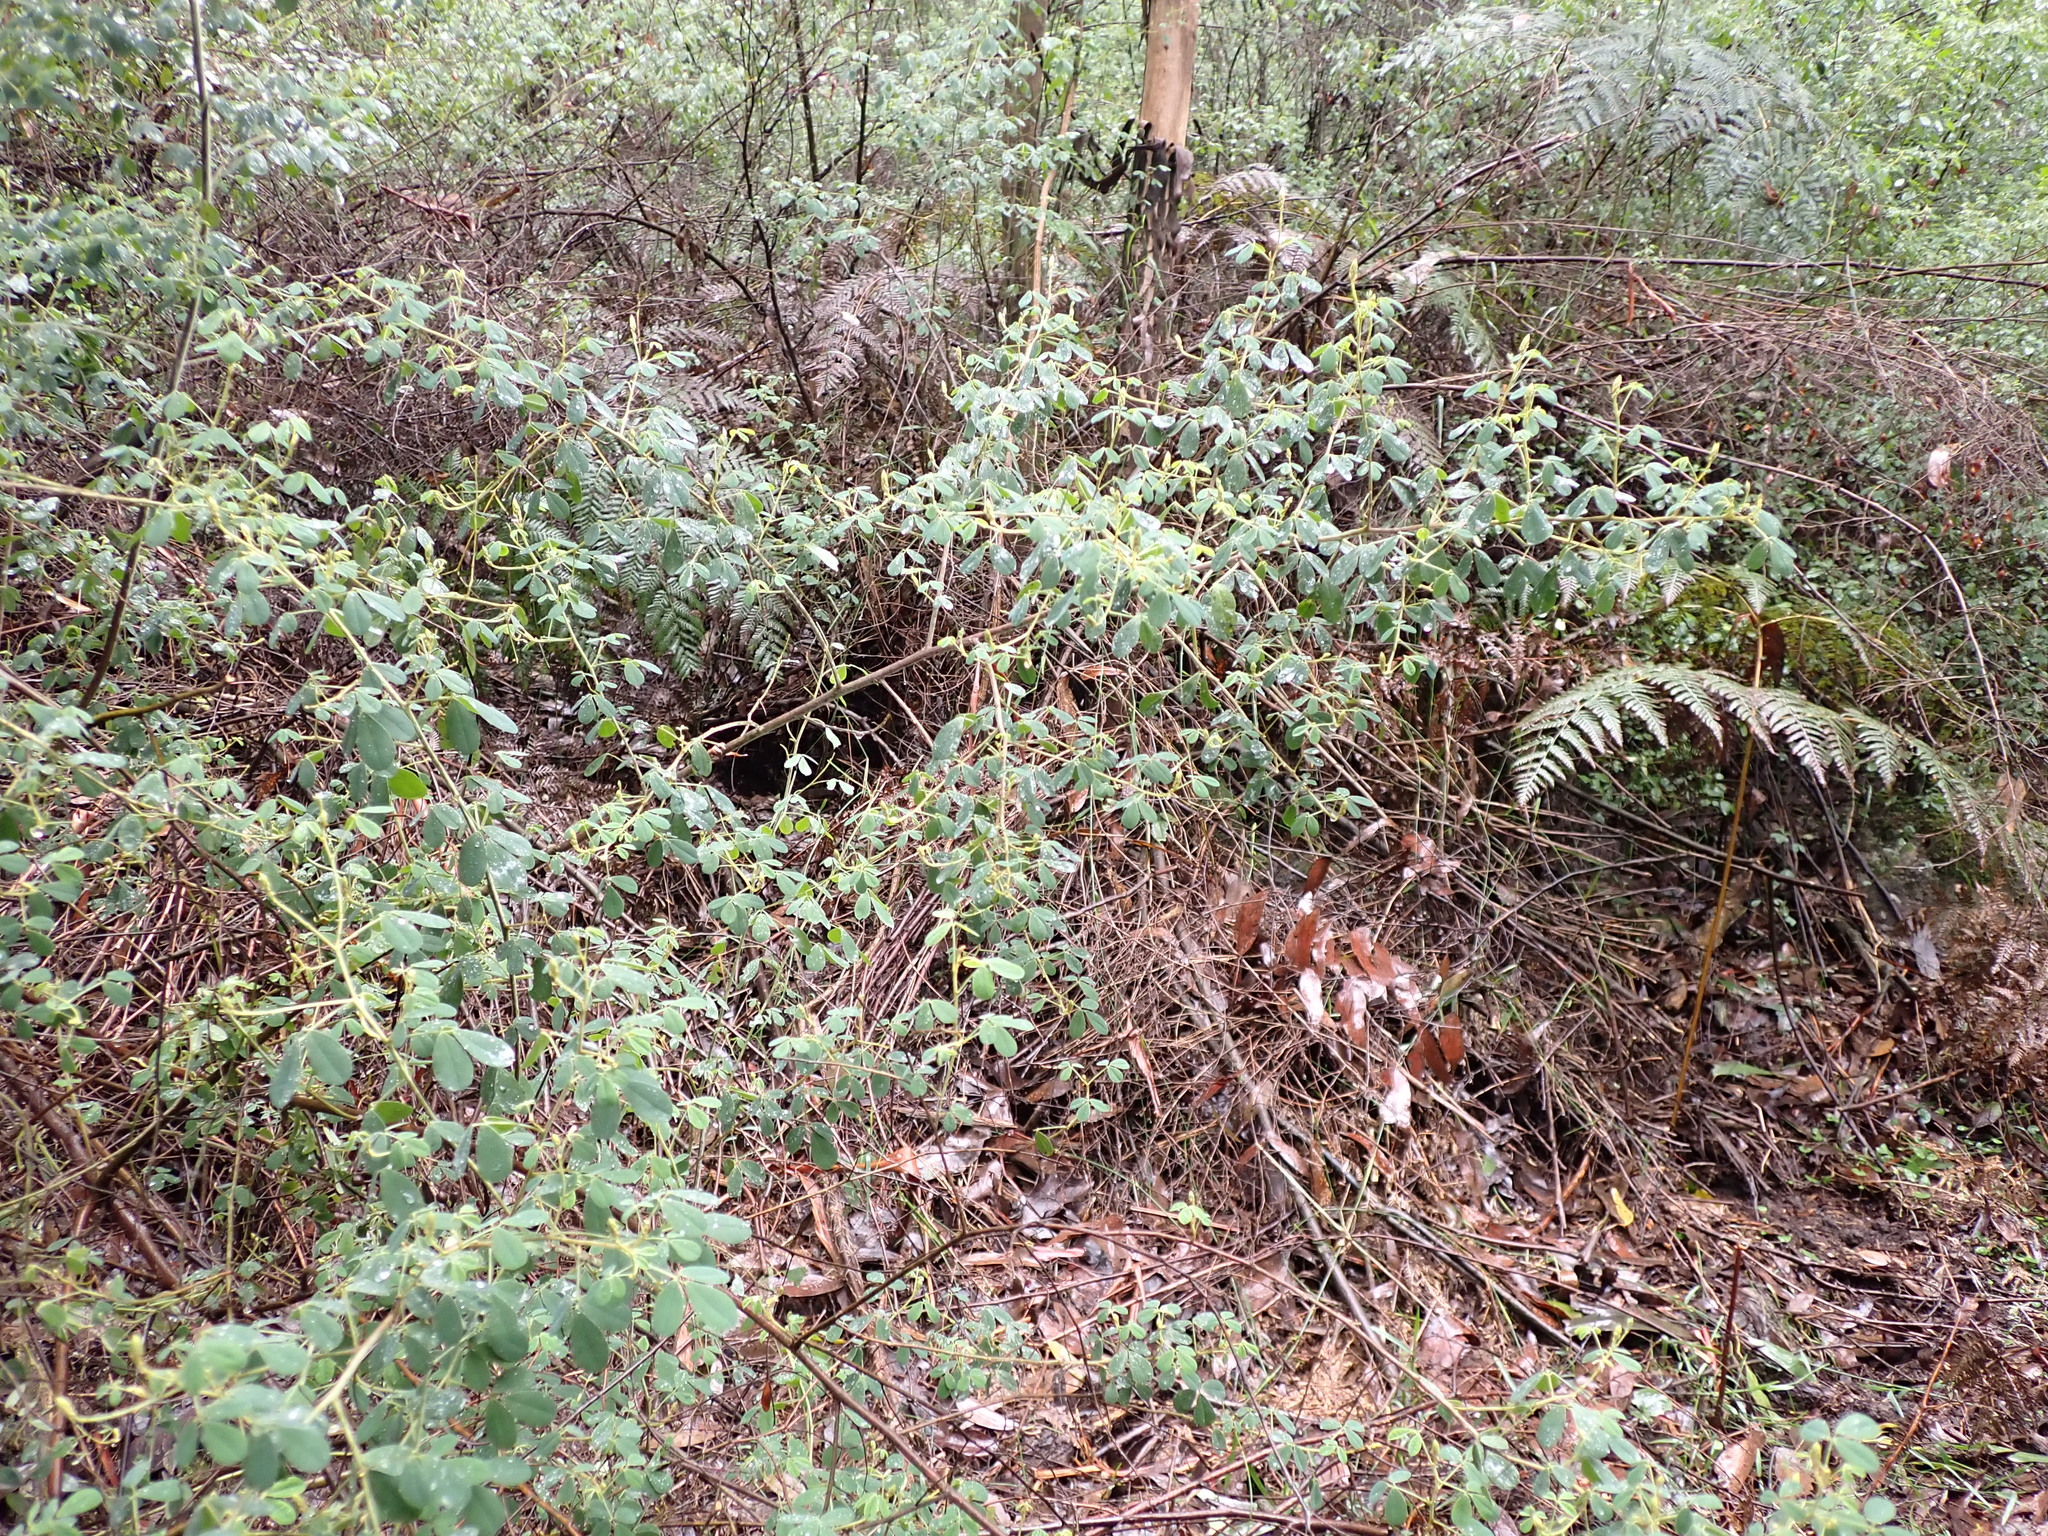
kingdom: Plantae
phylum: Tracheophyta
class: Magnoliopsida
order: Fabales
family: Fabaceae
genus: Goodia
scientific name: Goodia pubescens
